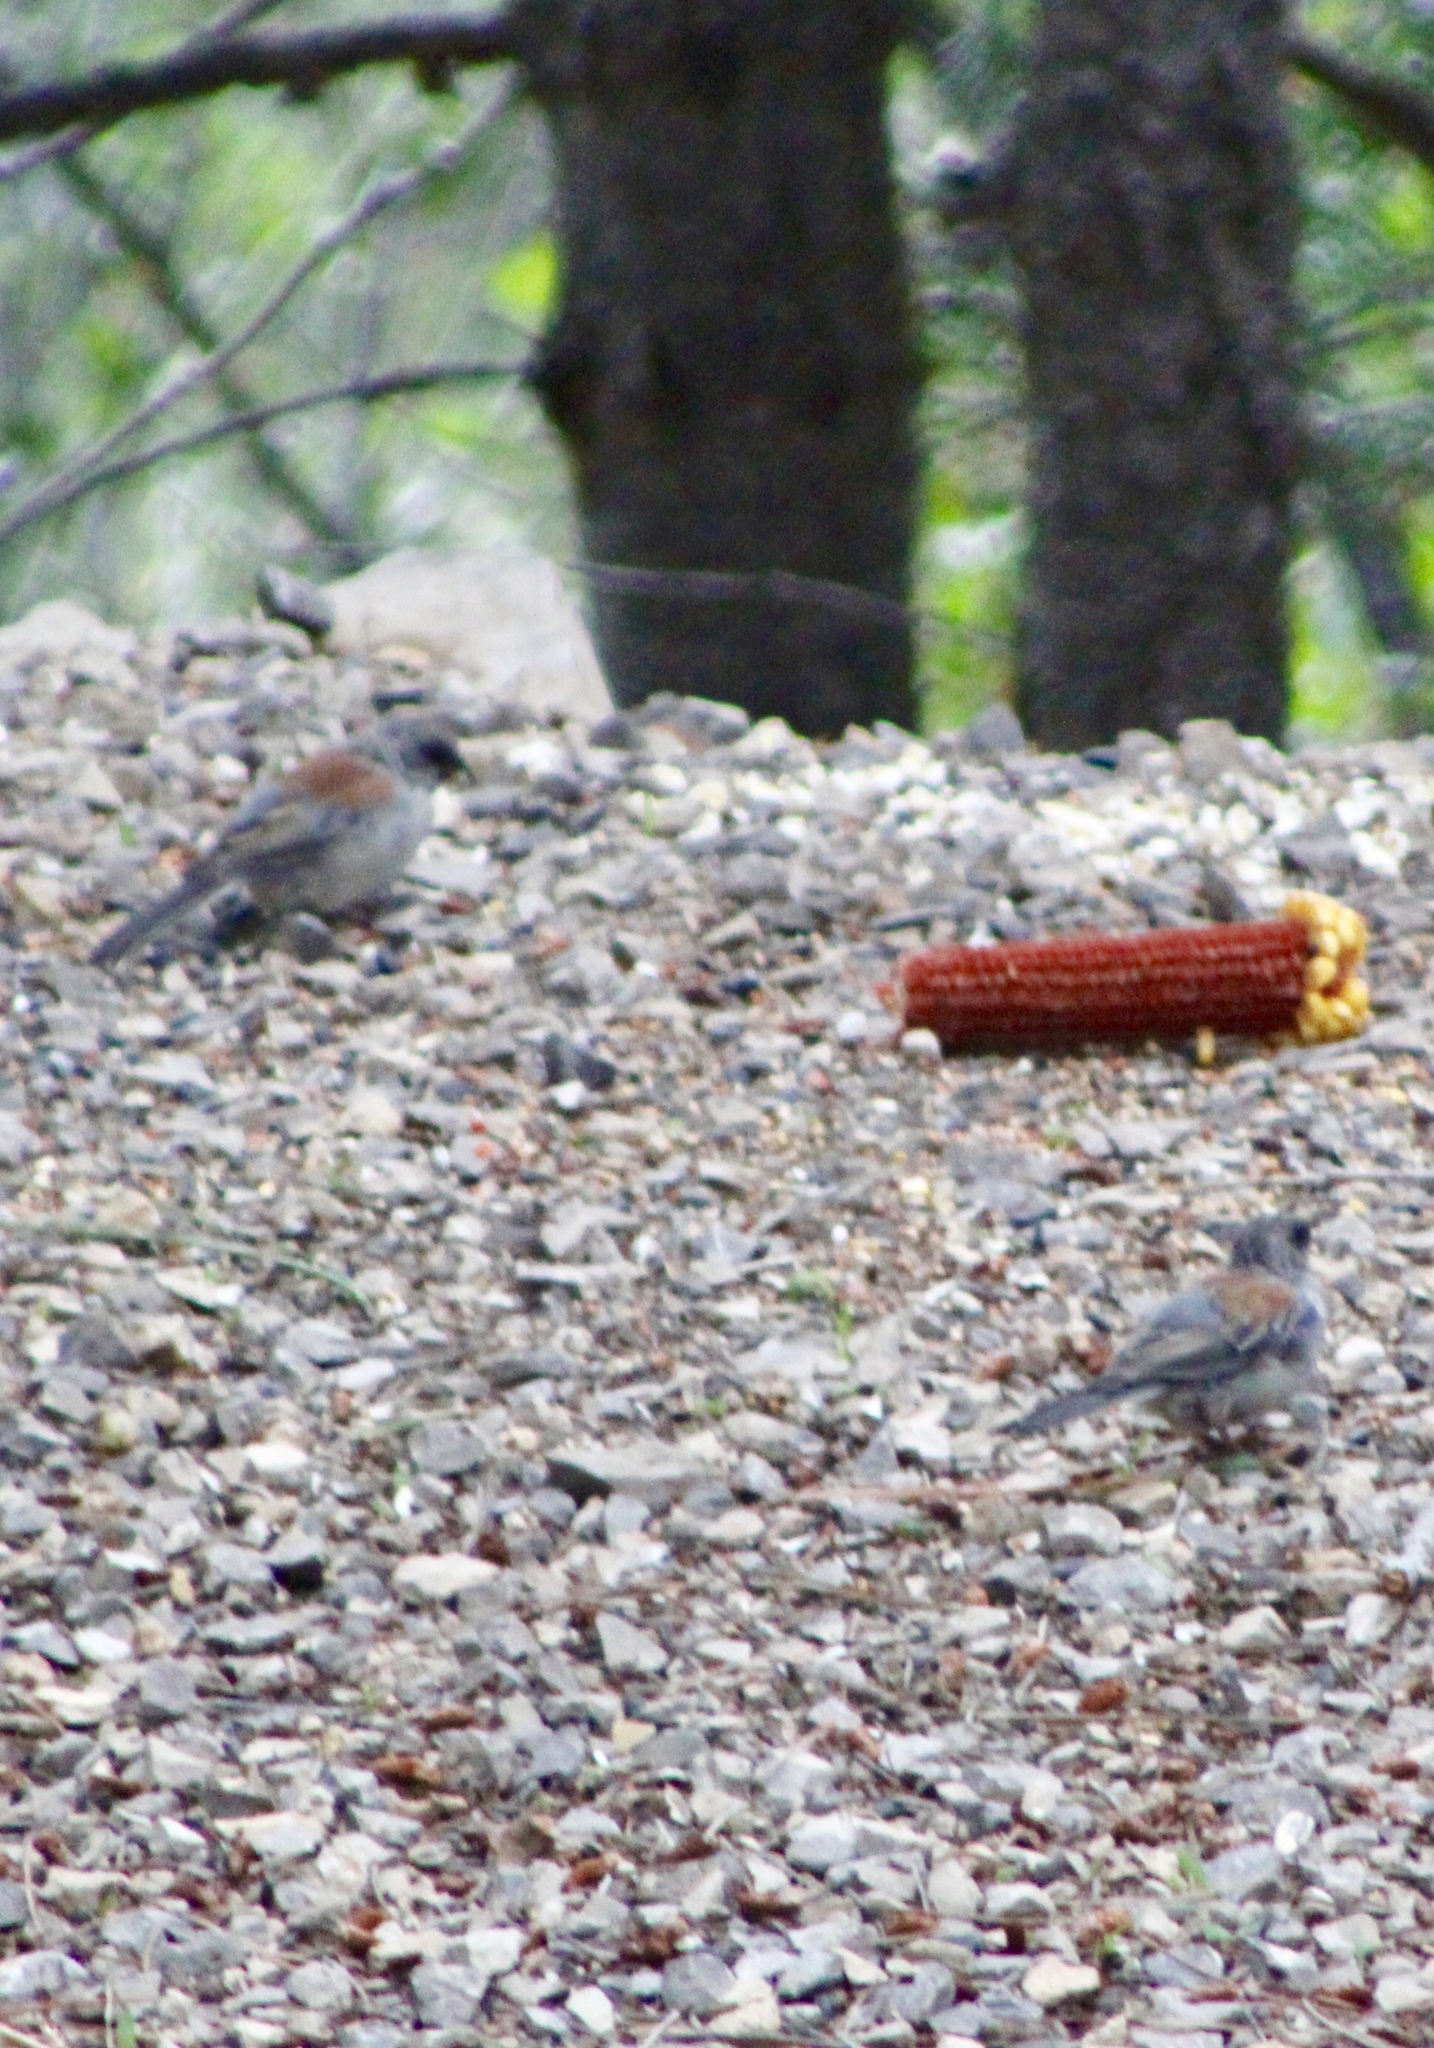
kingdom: Animalia
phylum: Chordata
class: Aves
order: Passeriformes
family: Passerellidae
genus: Junco
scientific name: Junco hyemalis
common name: Dark-eyed junco
